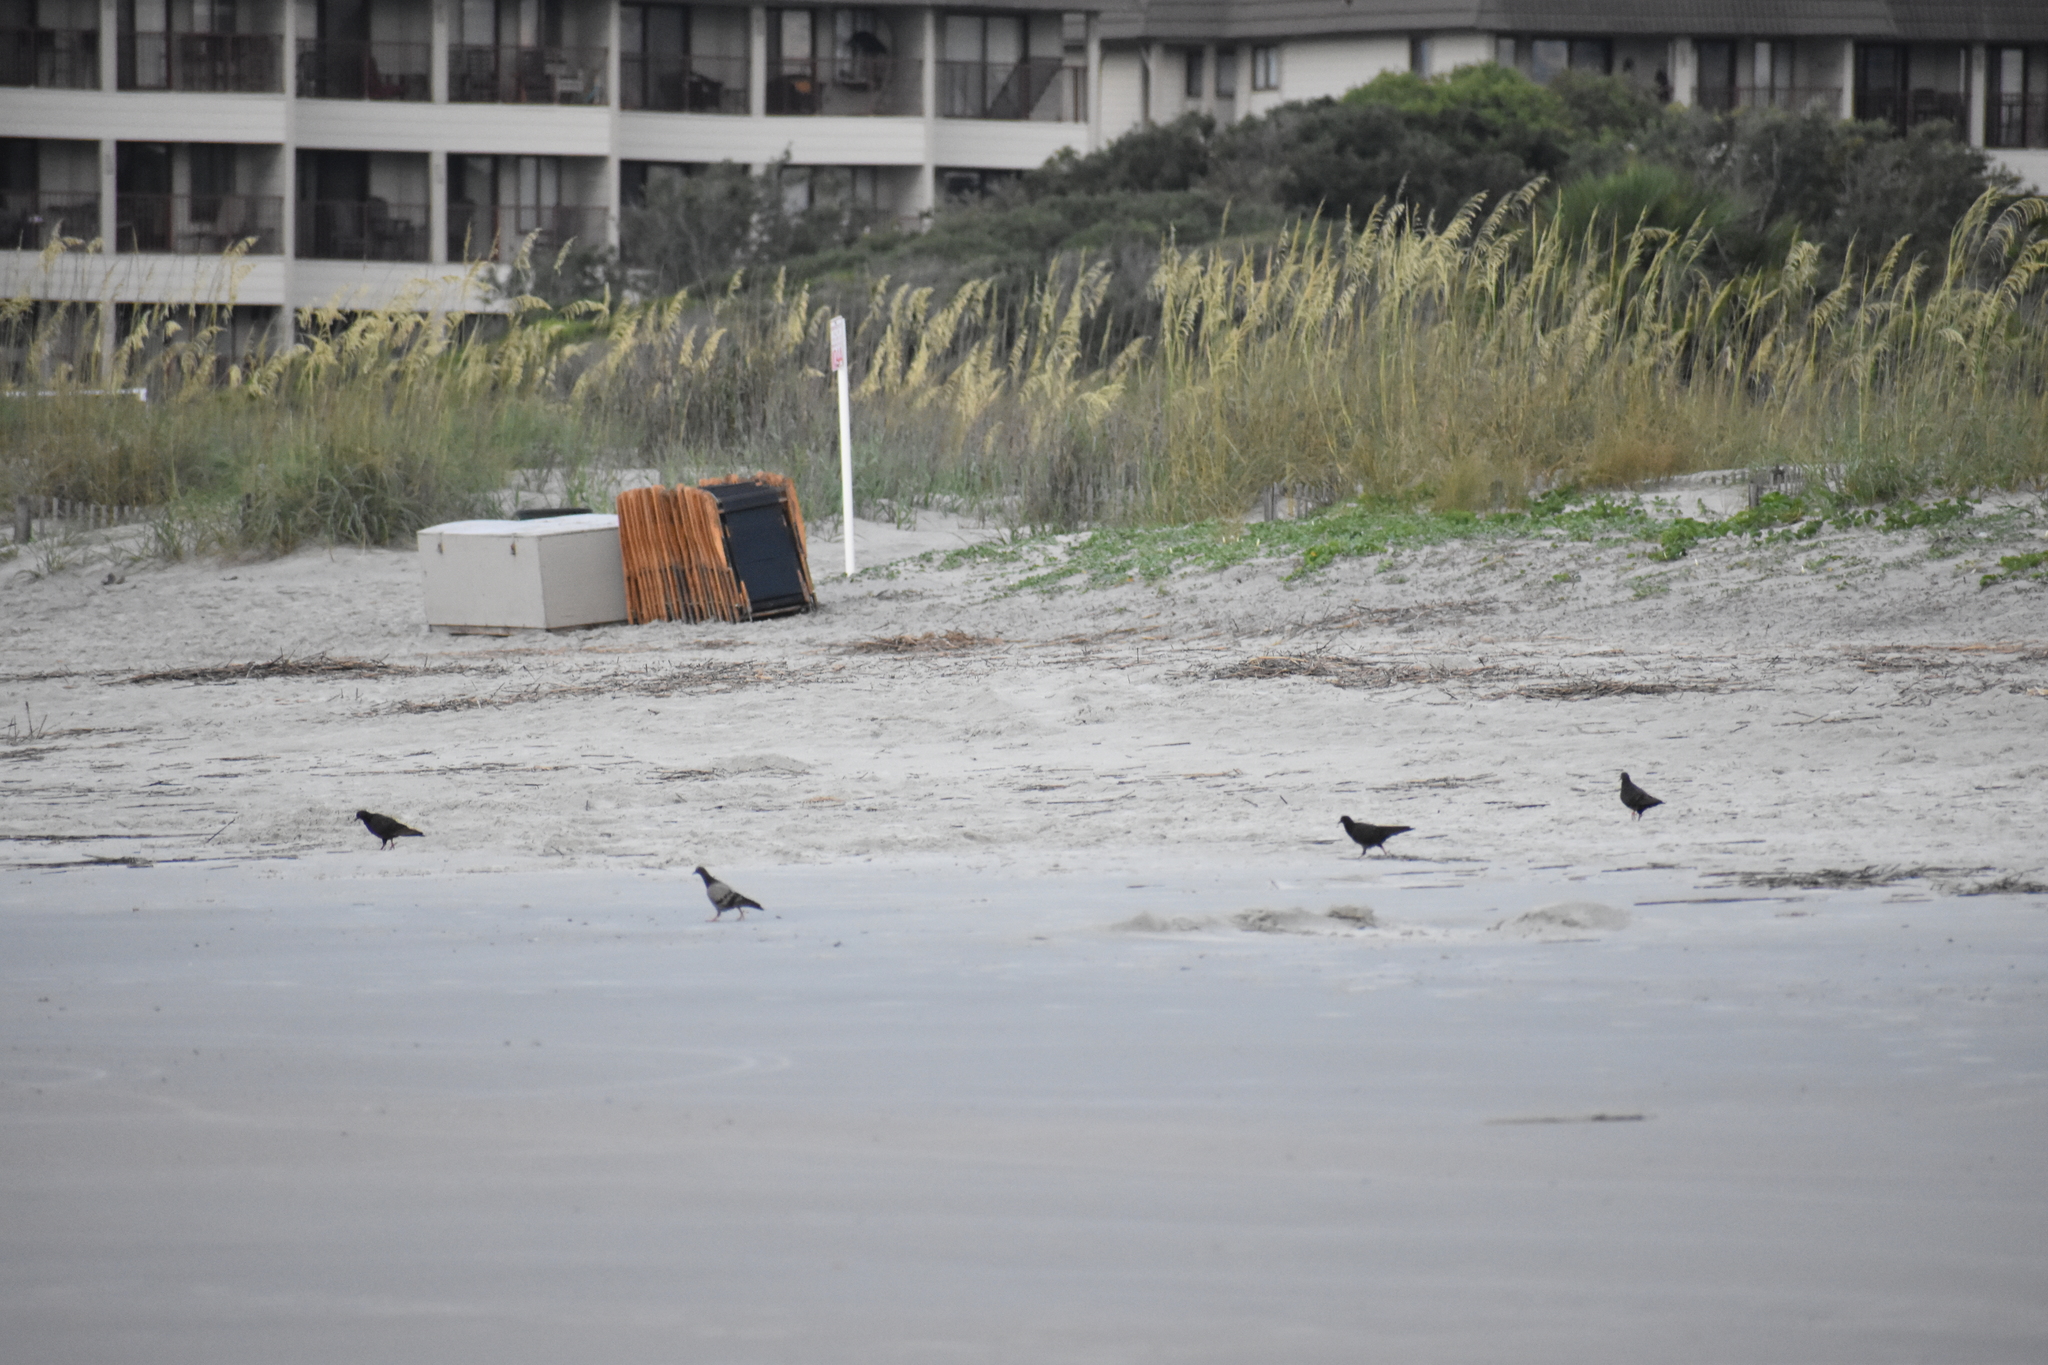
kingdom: Animalia
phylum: Chordata
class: Aves
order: Columbiformes
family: Columbidae
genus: Columba
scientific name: Columba livia
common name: Rock pigeon
